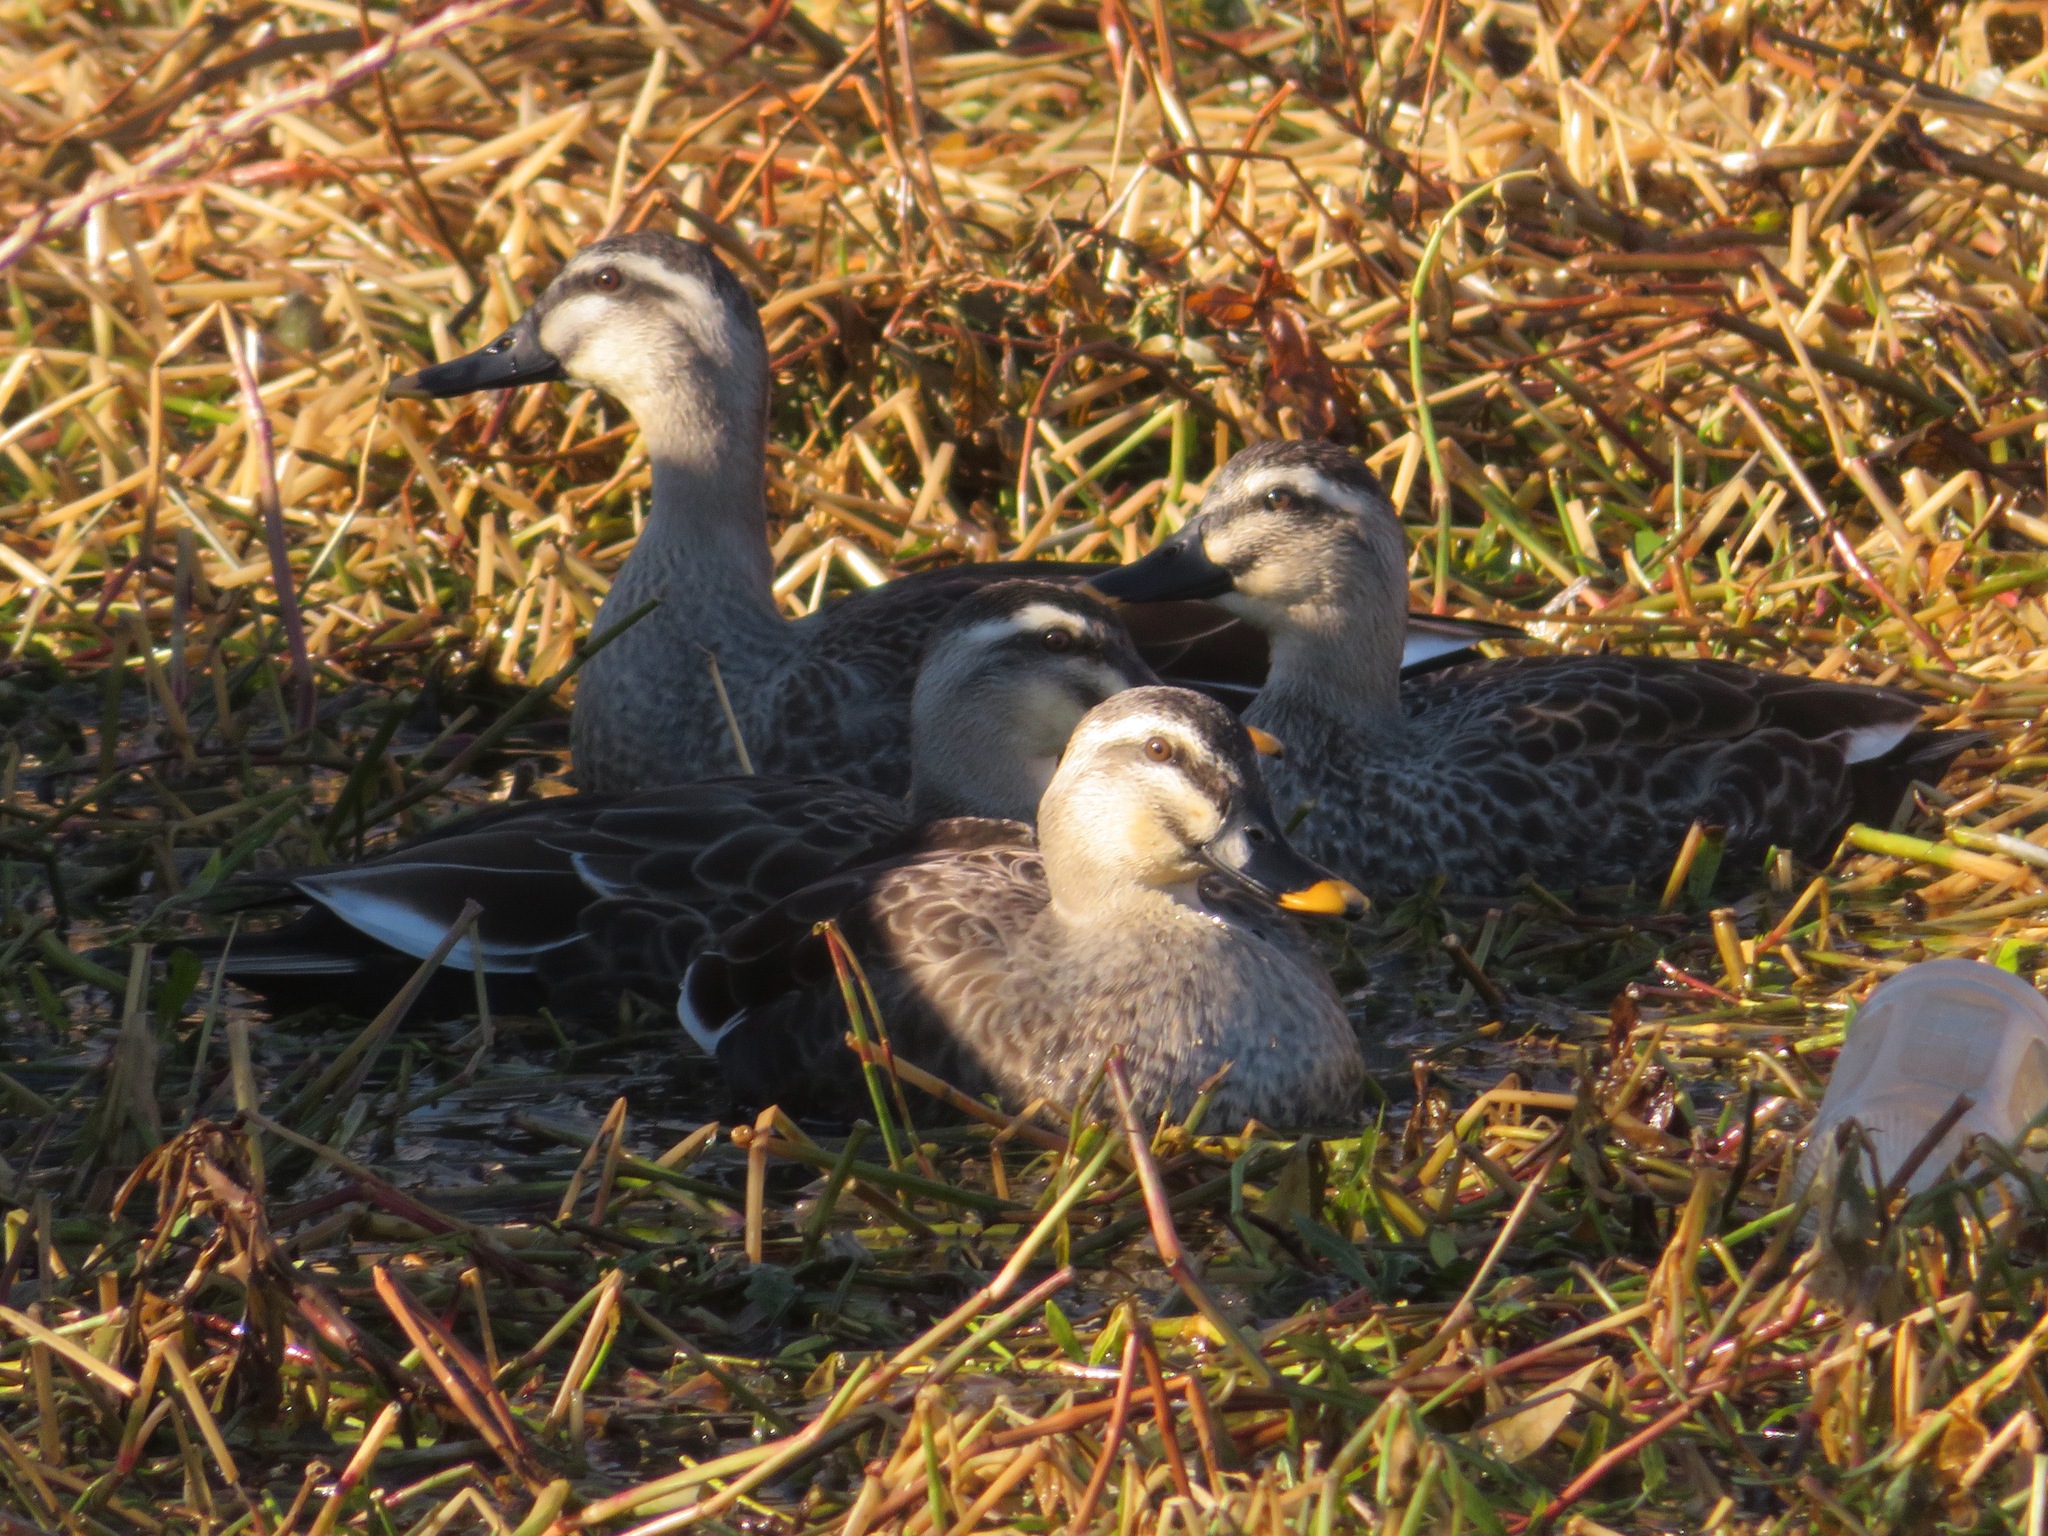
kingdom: Animalia
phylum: Chordata
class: Aves
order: Anseriformes
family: Anatidae
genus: Anas
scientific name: Anas zonorhyncha
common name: Eastern spot-billed duck
